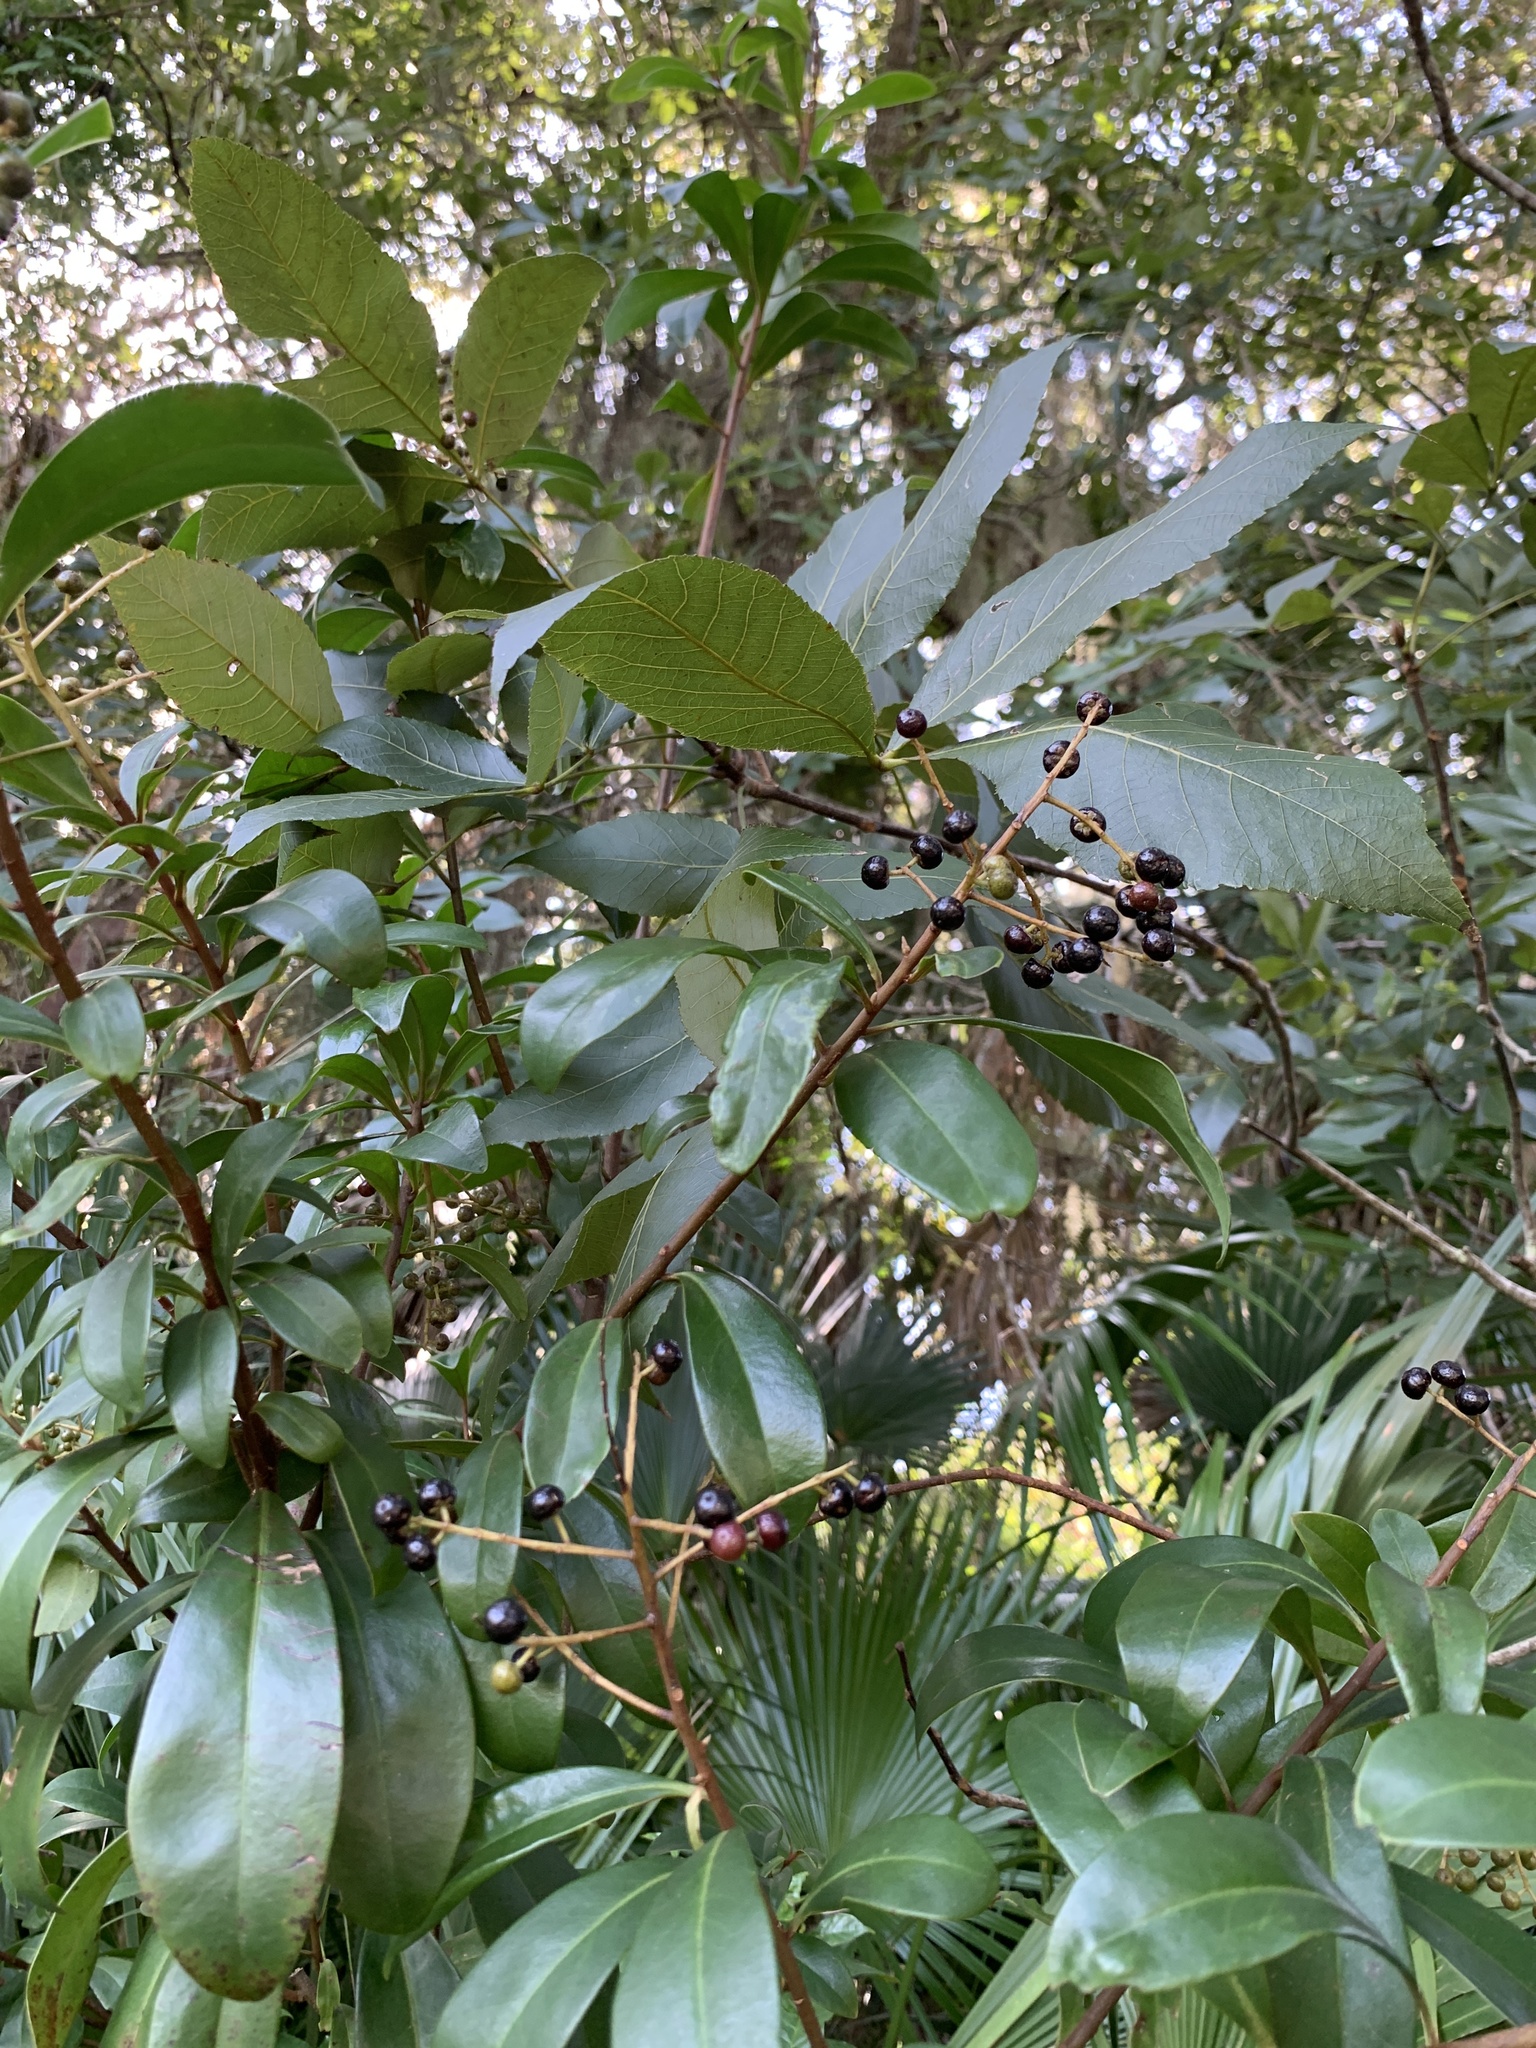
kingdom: Plantae
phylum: Tracheophyta
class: Magnoliopsida
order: Ericales
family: Primulaceae
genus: Ardisia
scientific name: Ardisia escallonioides
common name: Island marlberry
